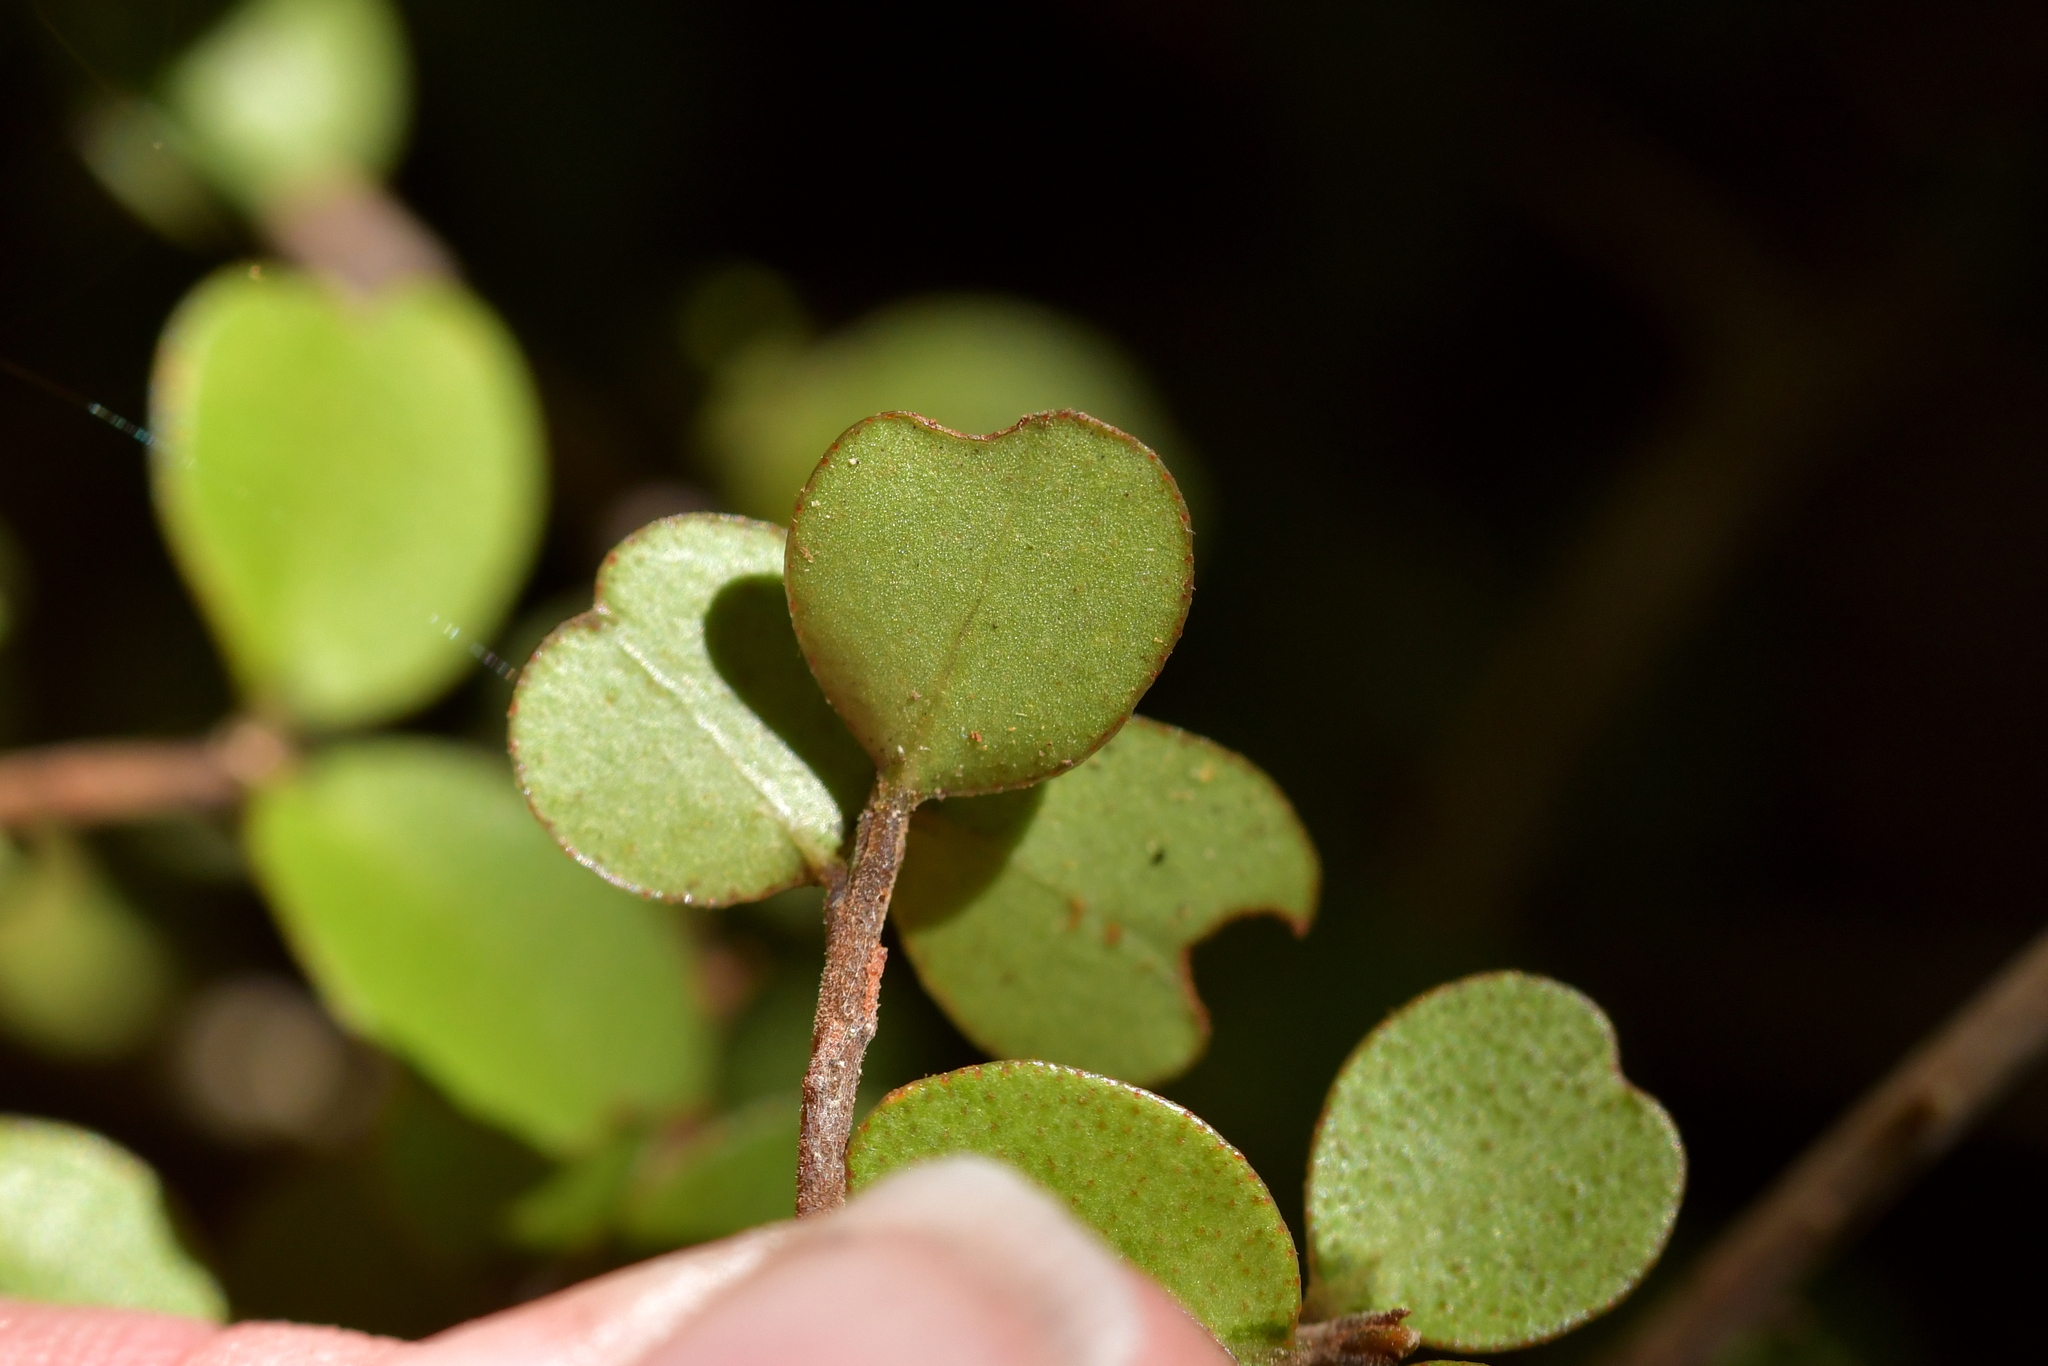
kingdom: Plantae
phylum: Tracheophyta
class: Magnoliopsida
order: Ericales
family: Primulaceae
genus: Myrsine
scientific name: Myrsine divaricata
